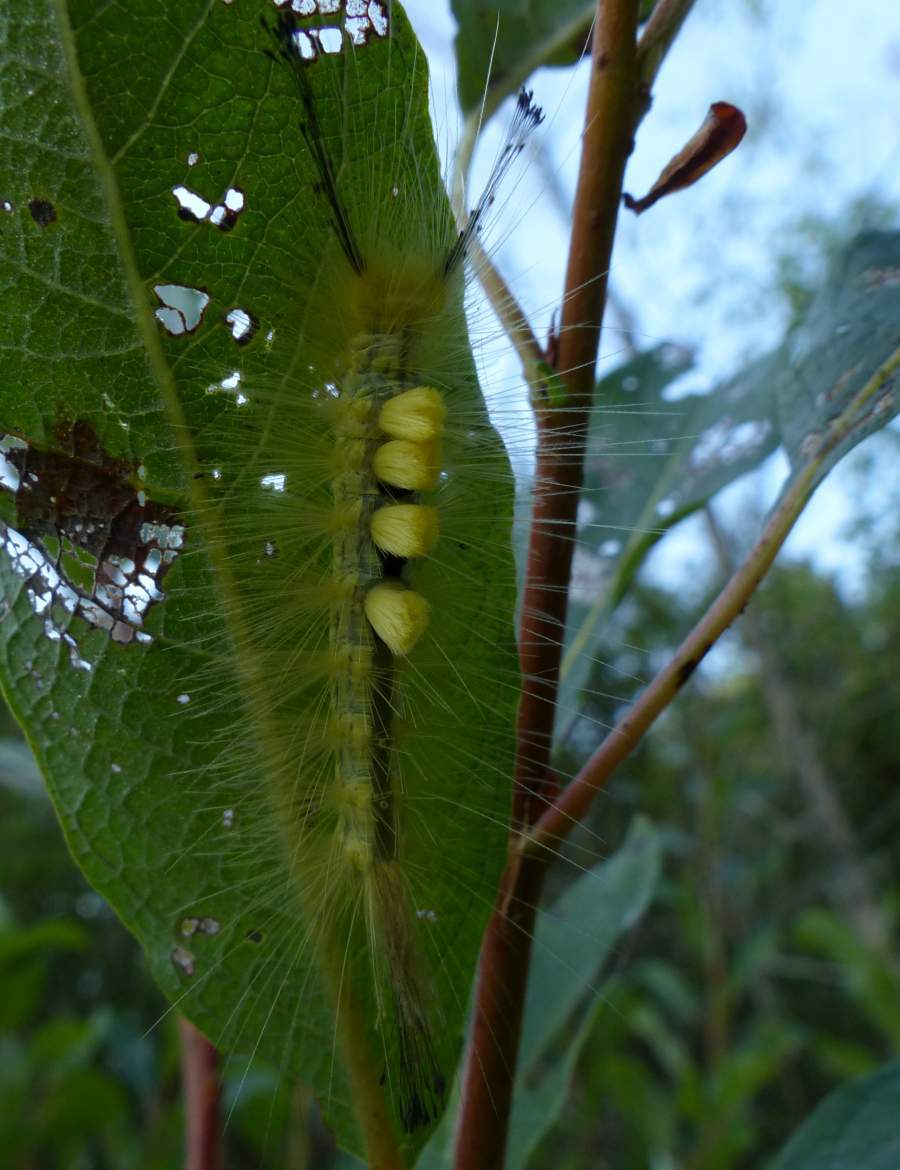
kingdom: Animalia
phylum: Arthropoda
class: Insecta
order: Lepidoptera
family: Erebidae
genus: Orgyia
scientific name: Orgyia definita
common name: Definite tussock moth
